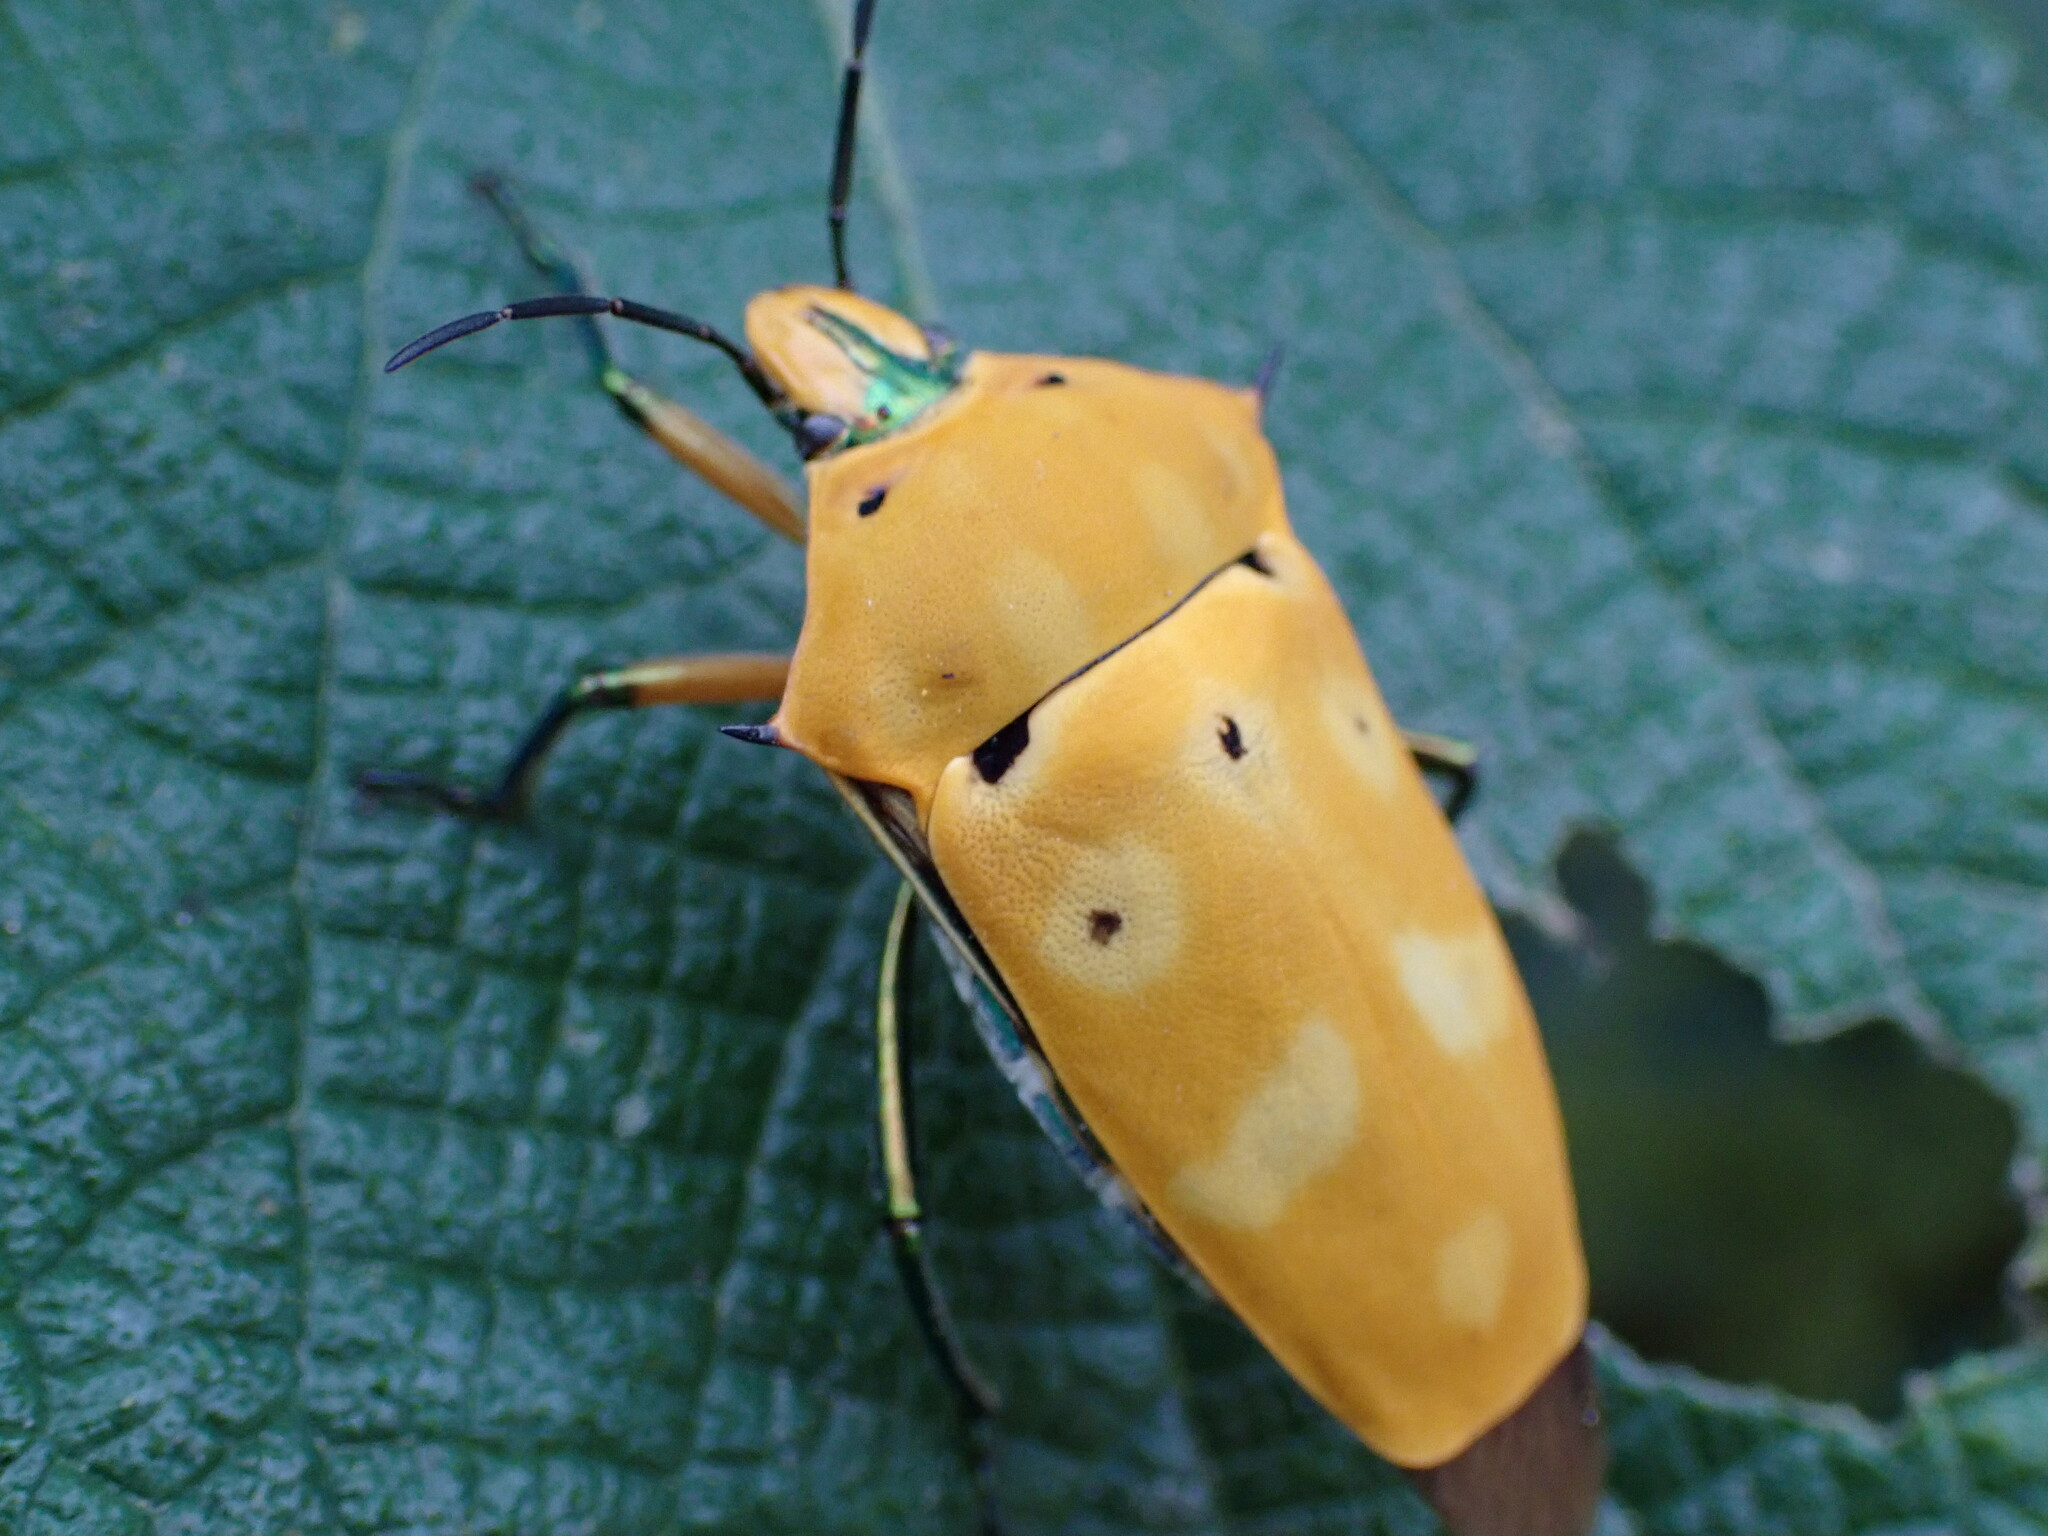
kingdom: Animalia
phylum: Arthropoda
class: Insecta
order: Hemiptera
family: Scutelleridae
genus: Cantao
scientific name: Cantao ocellatus
